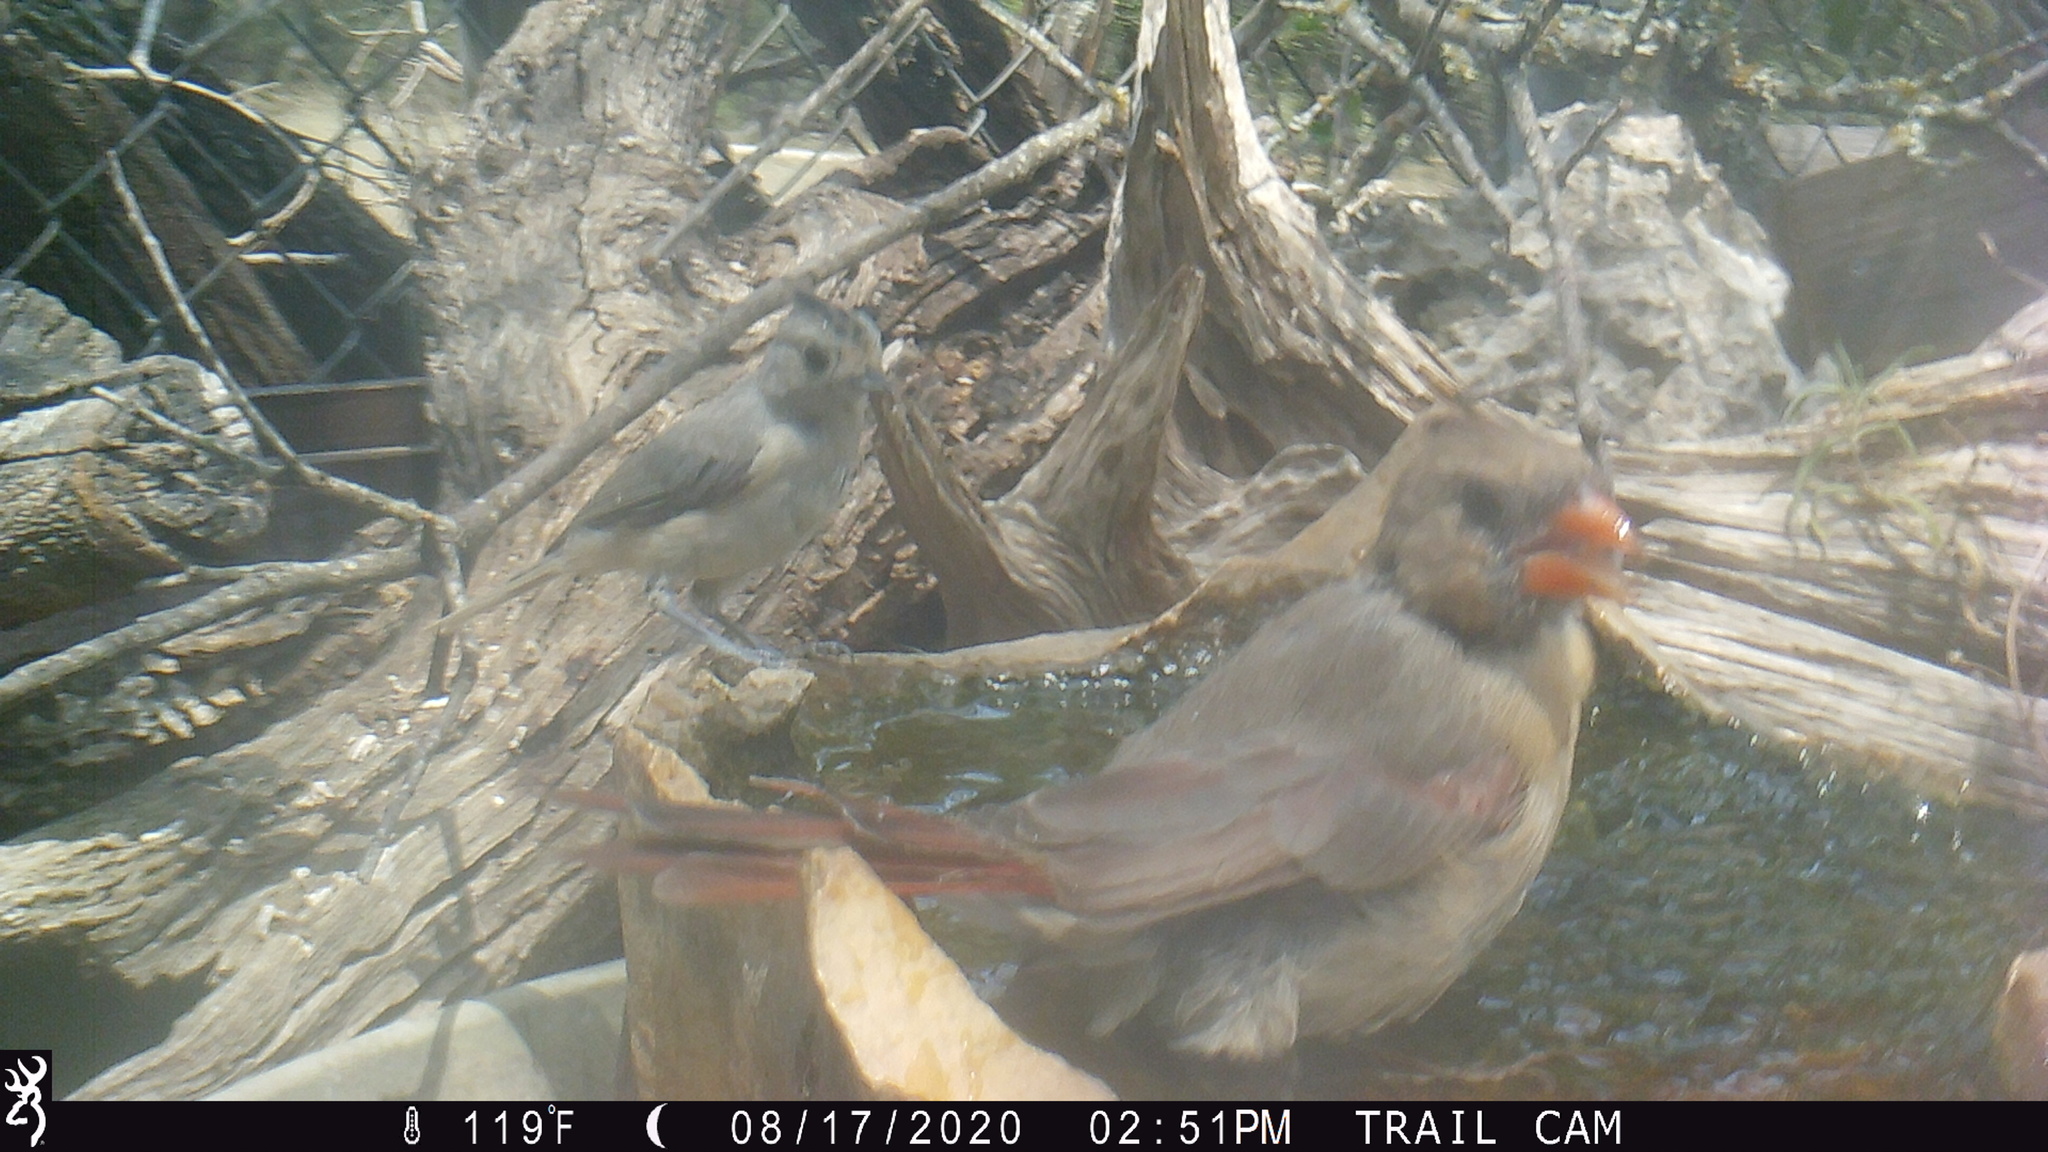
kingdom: Animalia
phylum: Chordata
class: Aves
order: Passeriformes
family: Cardinalidae
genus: Cardinalis
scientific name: Cardinalis cardinalis
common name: Northern cardinal
